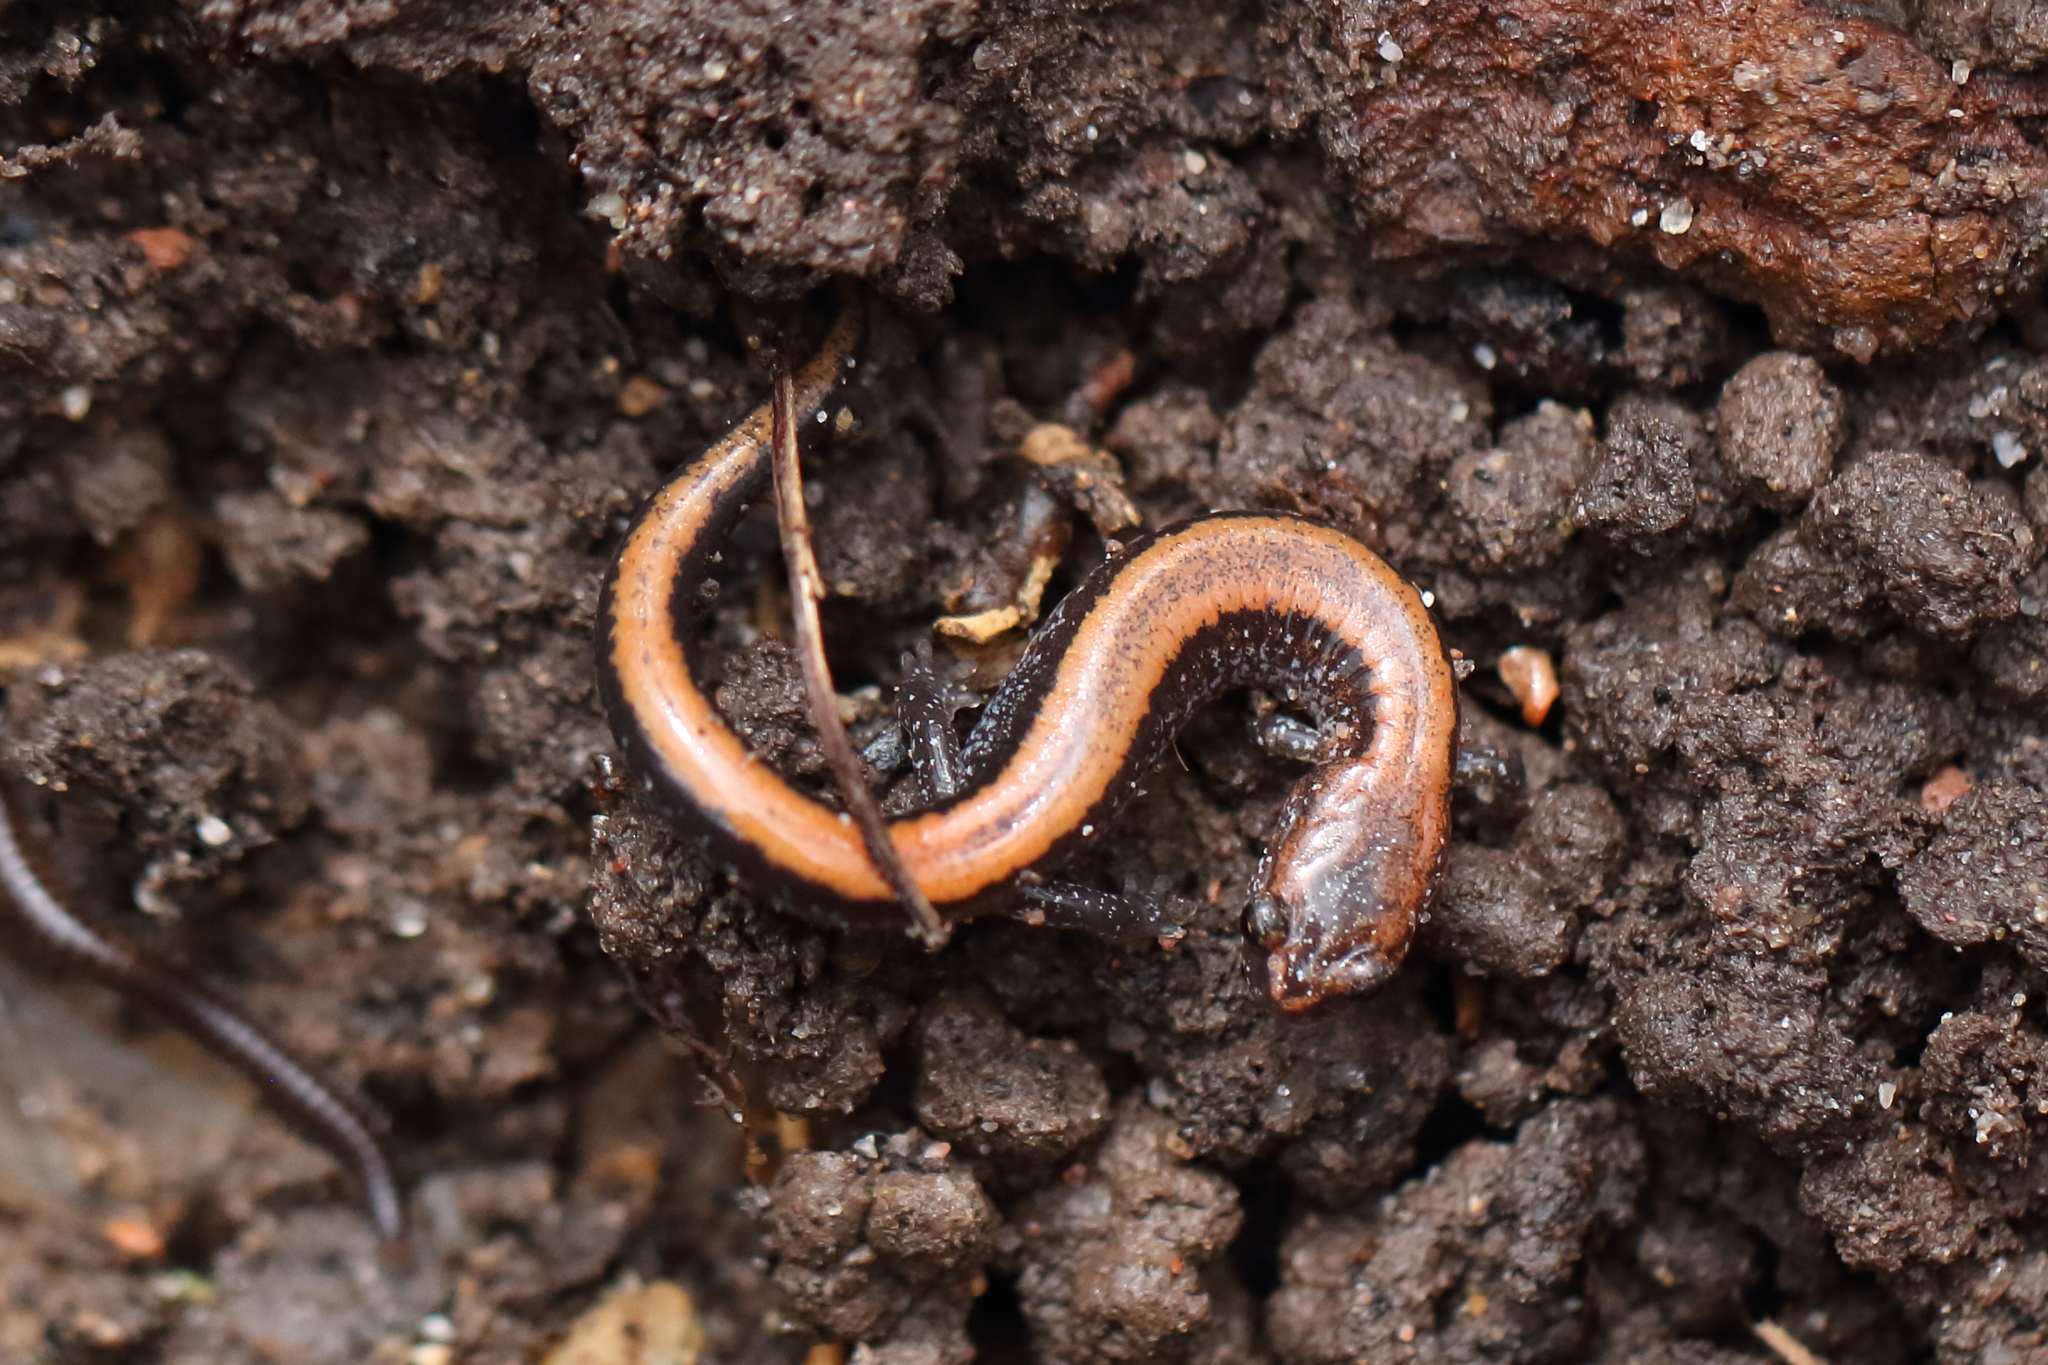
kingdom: Animalia
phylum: Chordata
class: Amphibia
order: Caudata
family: Plethodontidae
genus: Plethodon
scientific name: Plethodon cinereus
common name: Redback salamander
